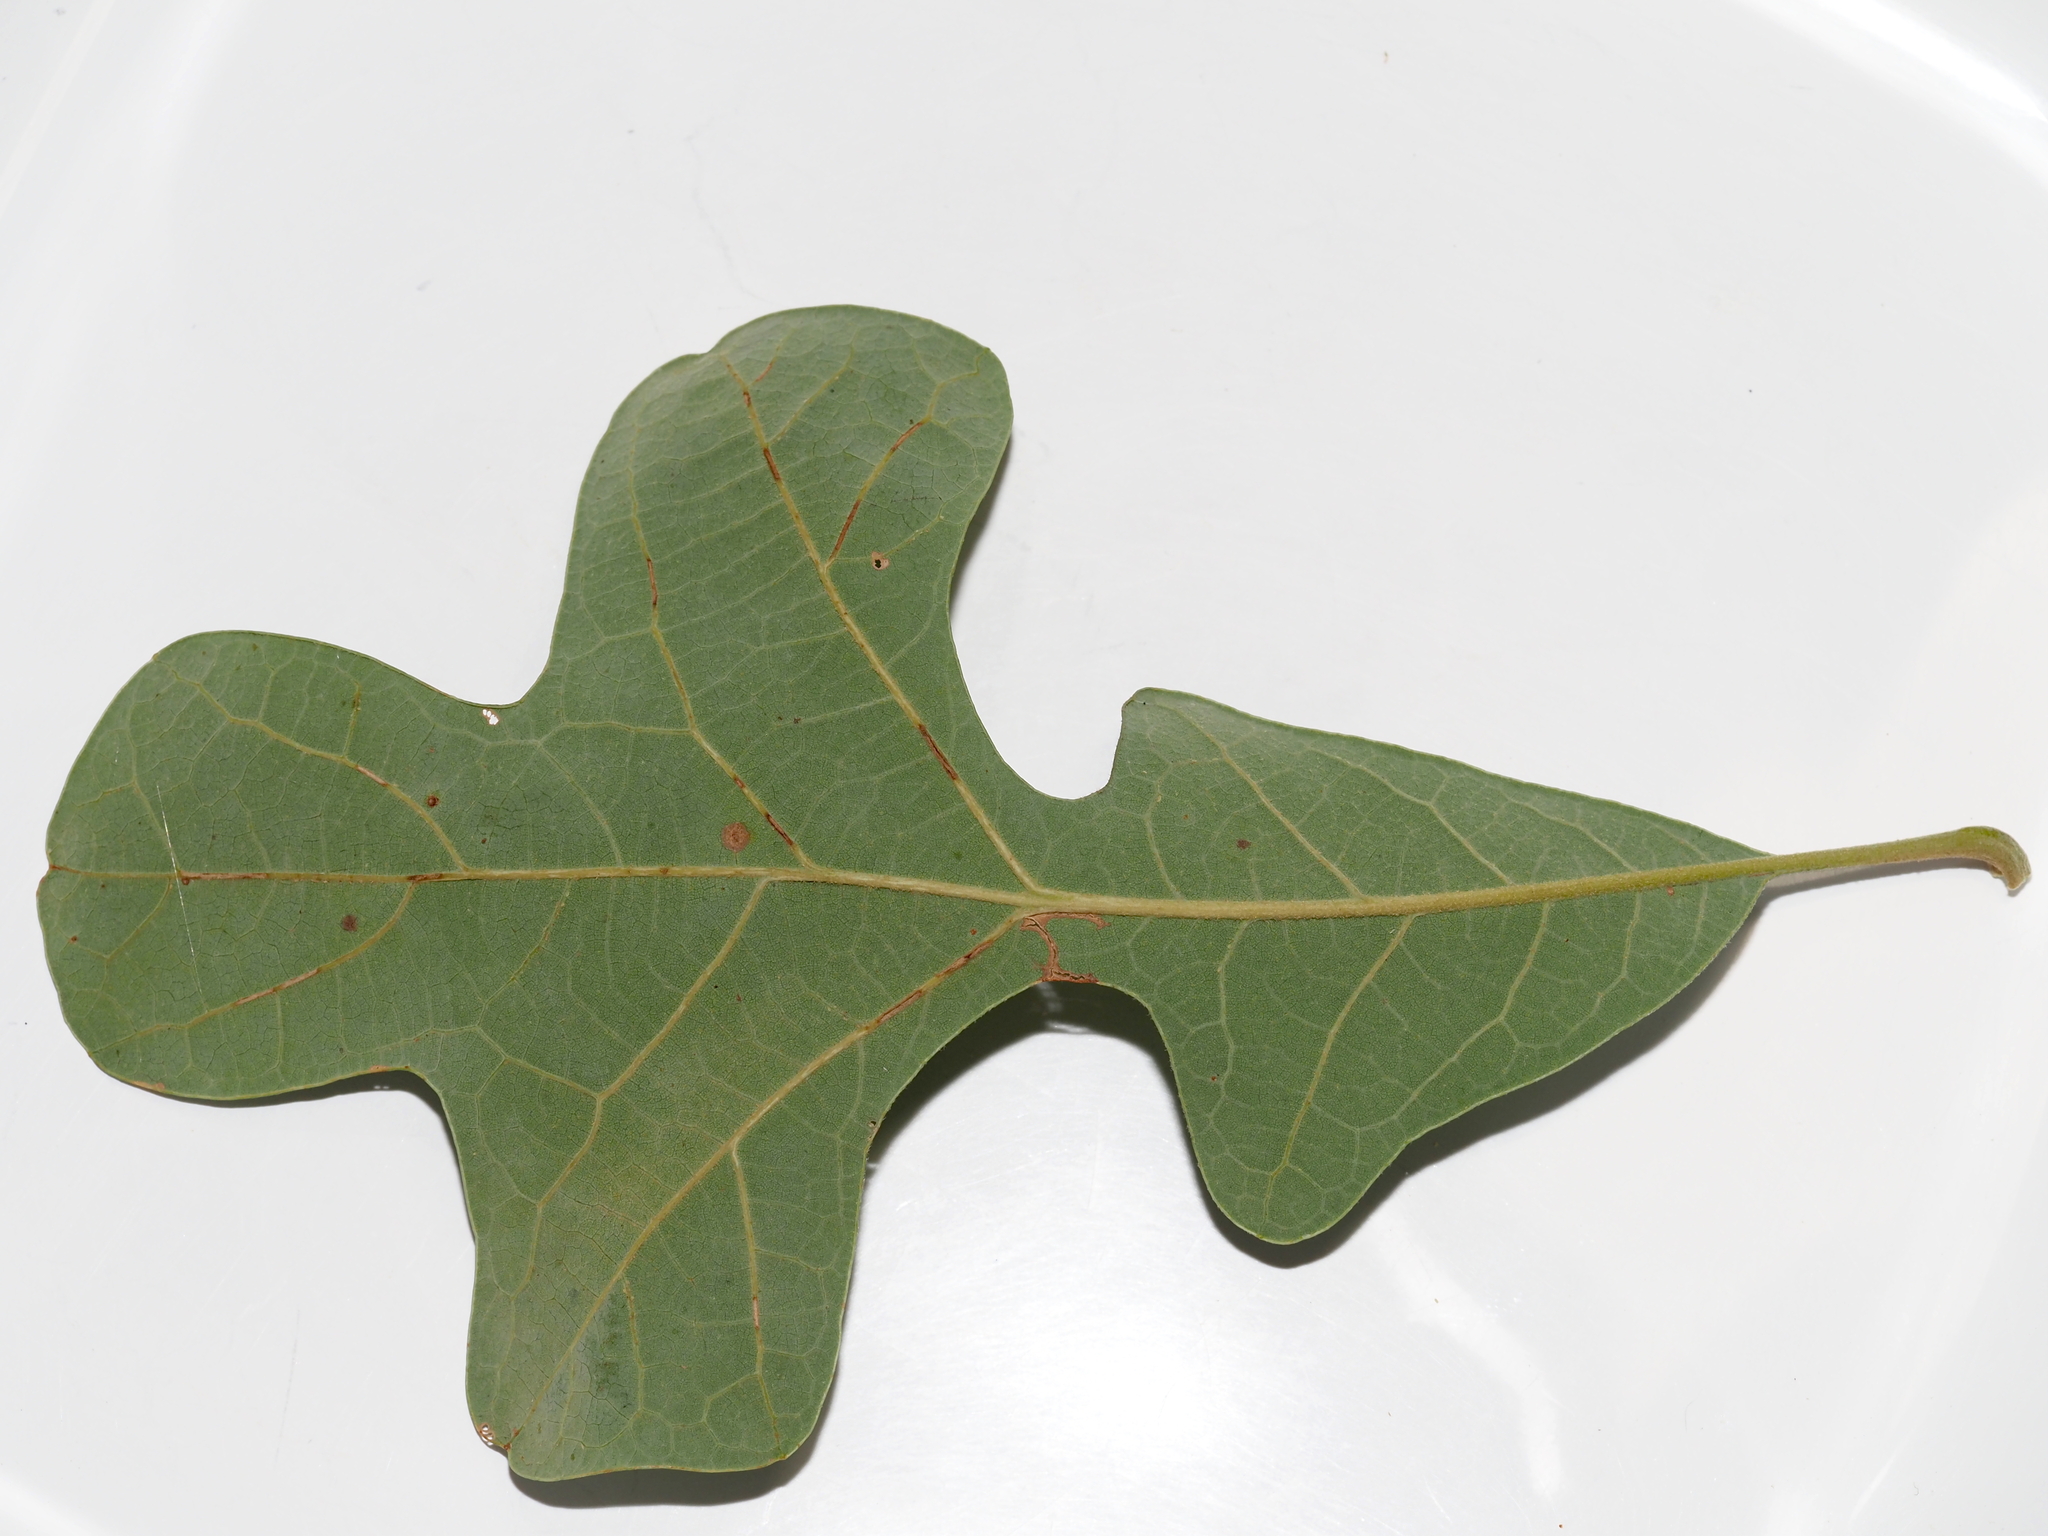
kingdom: Plantae
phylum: Tracheophyta
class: Magnoliopsida
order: Fagales
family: Fagaceae
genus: Quercus
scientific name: Quercus stellata
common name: Post oak
